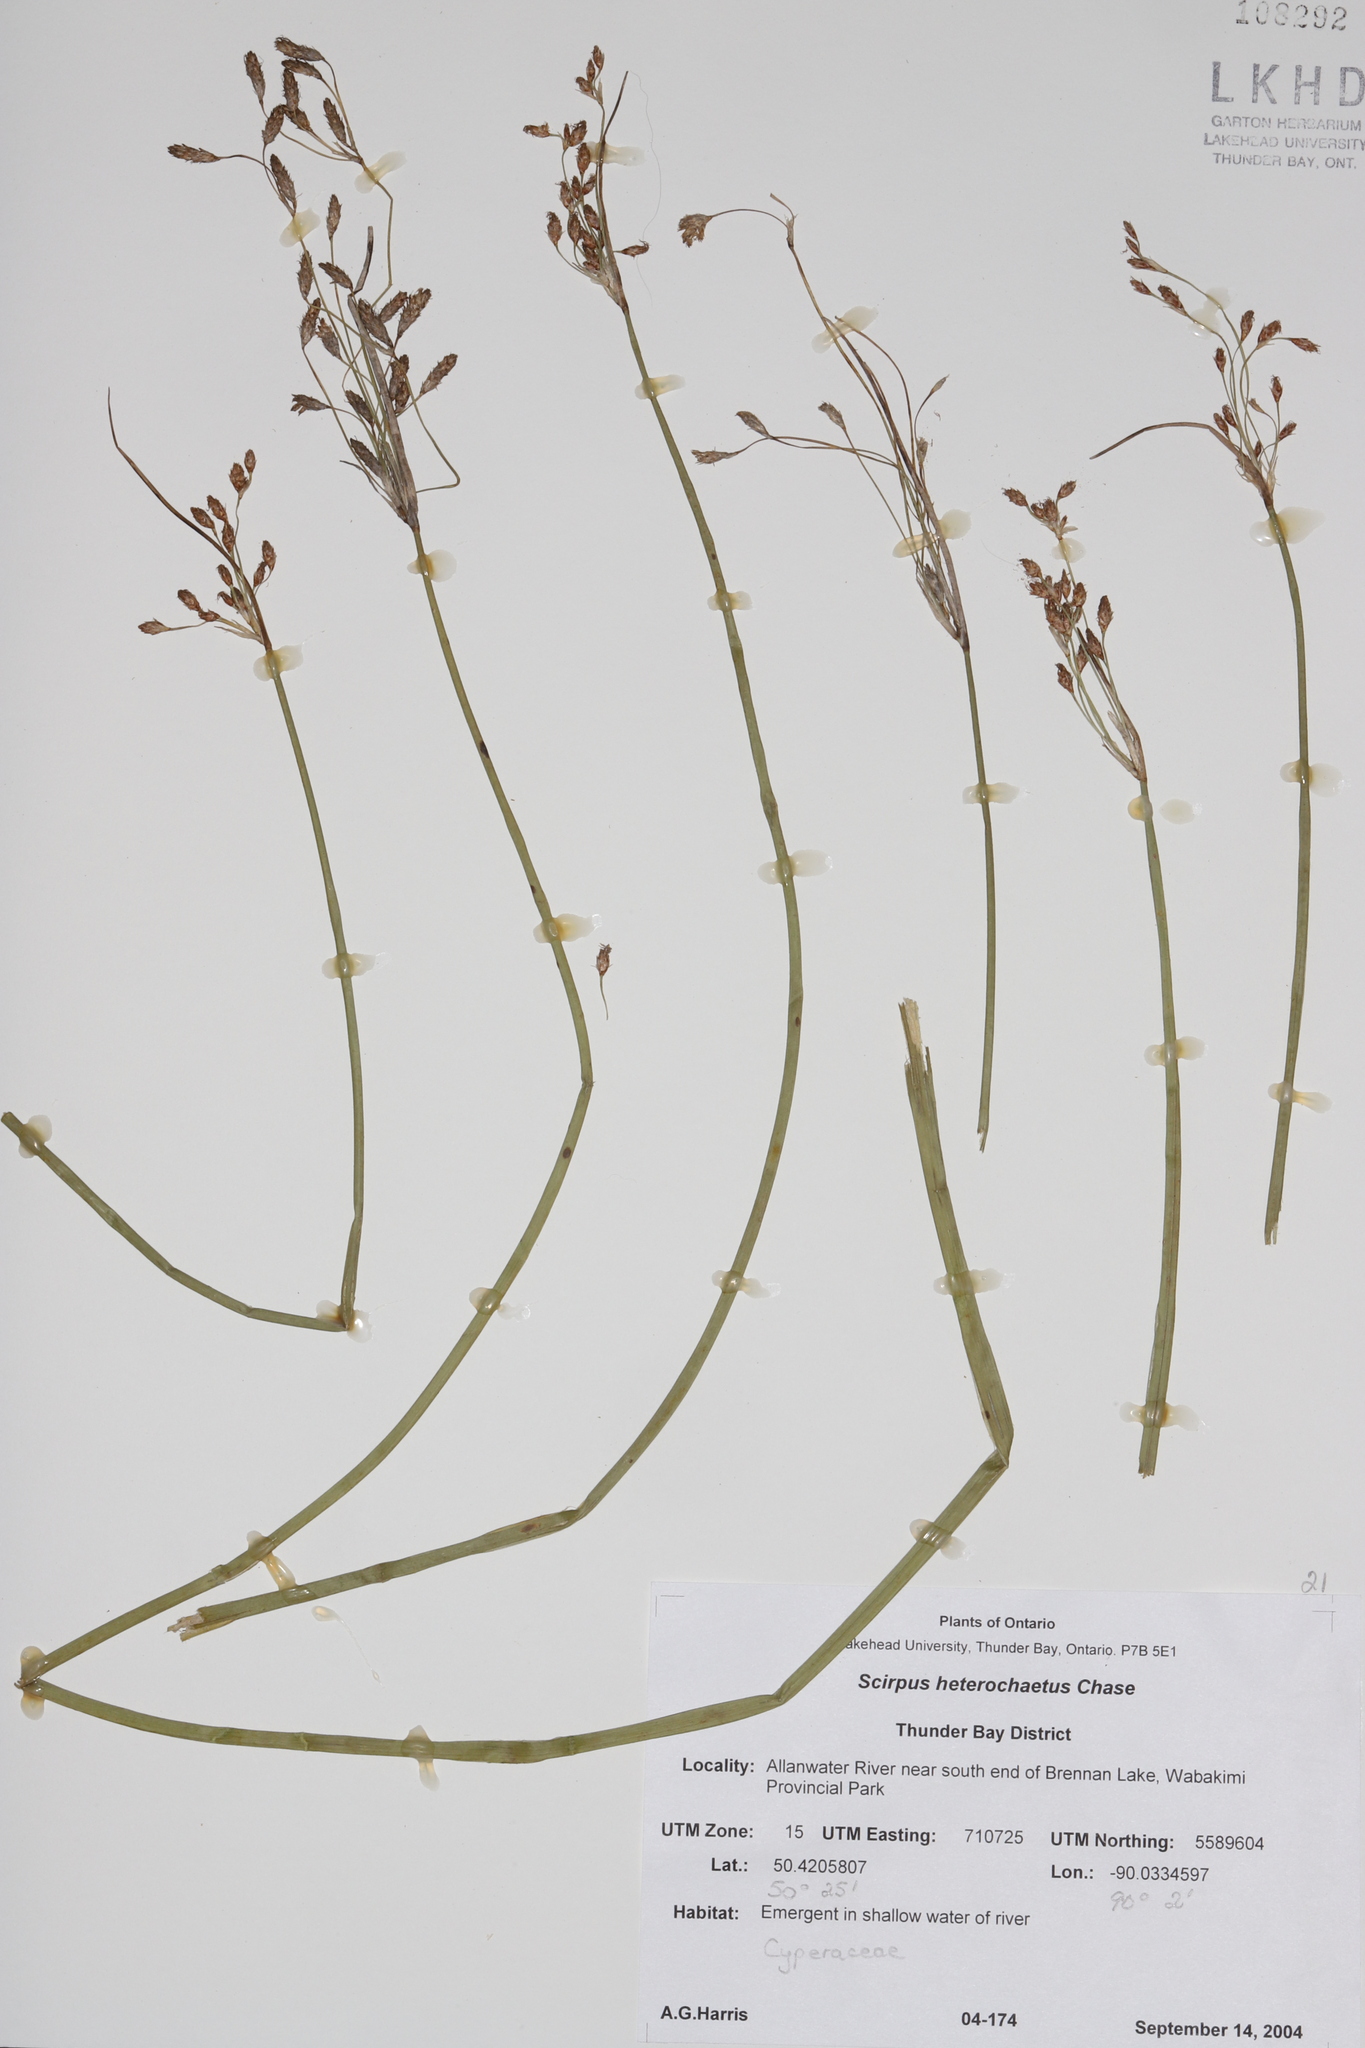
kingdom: Plantae
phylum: Tracheophyta
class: Liliopsida
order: Poales
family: Cyperaceae
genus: Schoenoplectus
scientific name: Schoenoplectus heterochaetus
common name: Pale great bulrush
